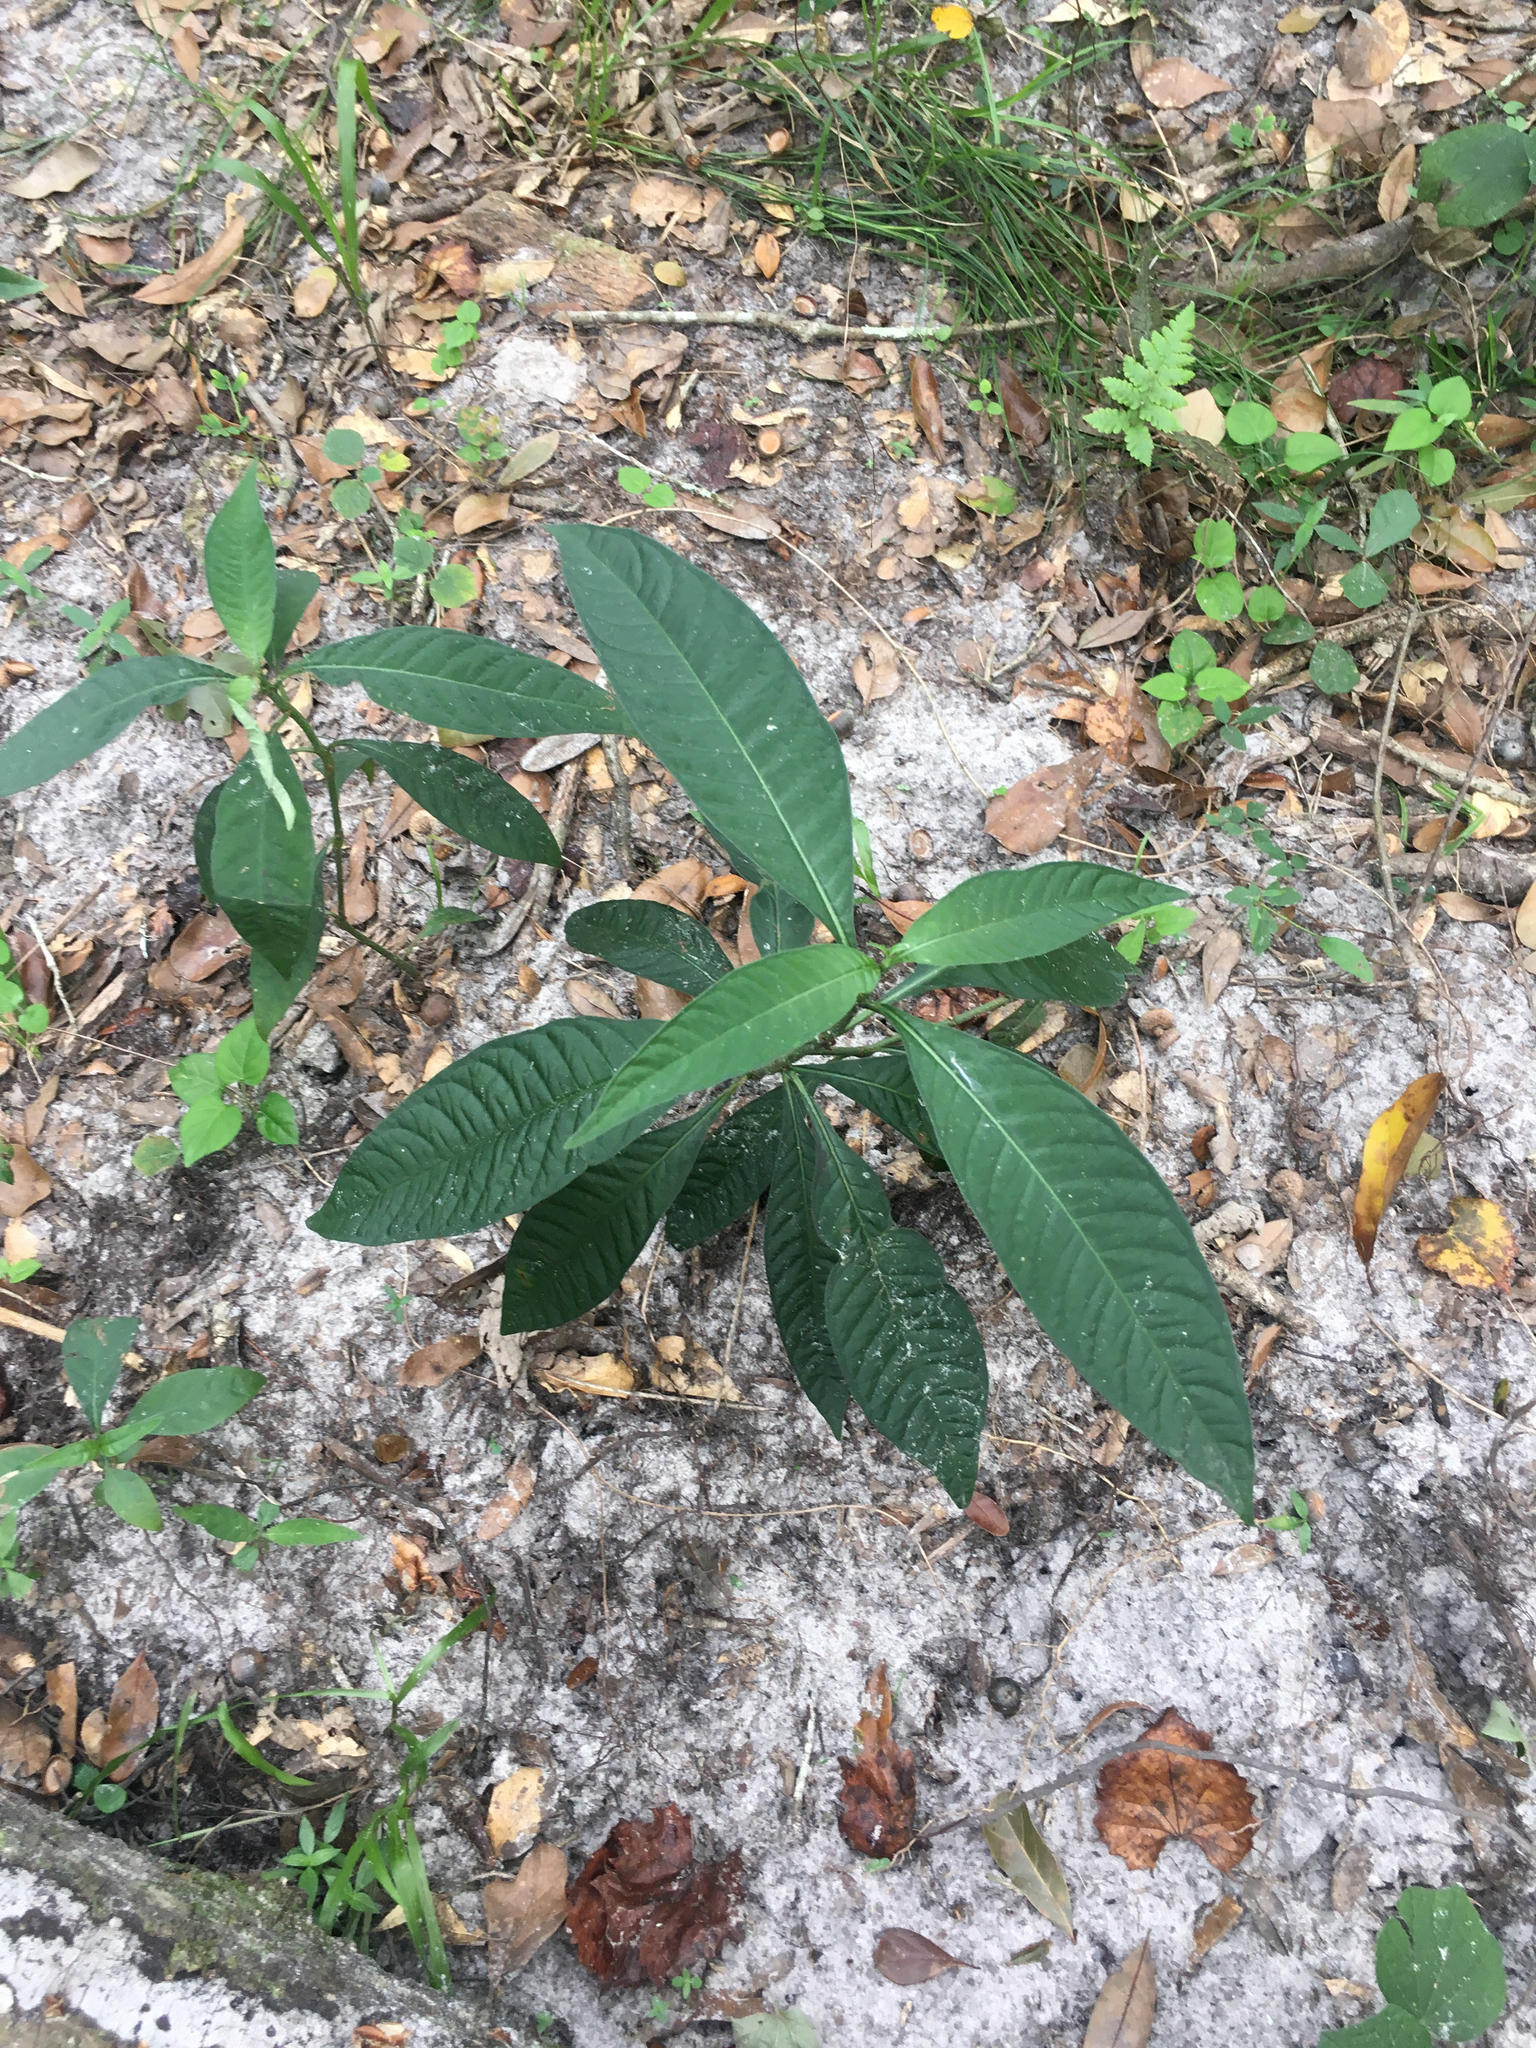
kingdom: Plantae
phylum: Tracheophyta
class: Magnoliopsida
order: Gentianales
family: Rubiaceae
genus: Psychotria
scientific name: Psychotria tenuifolia
